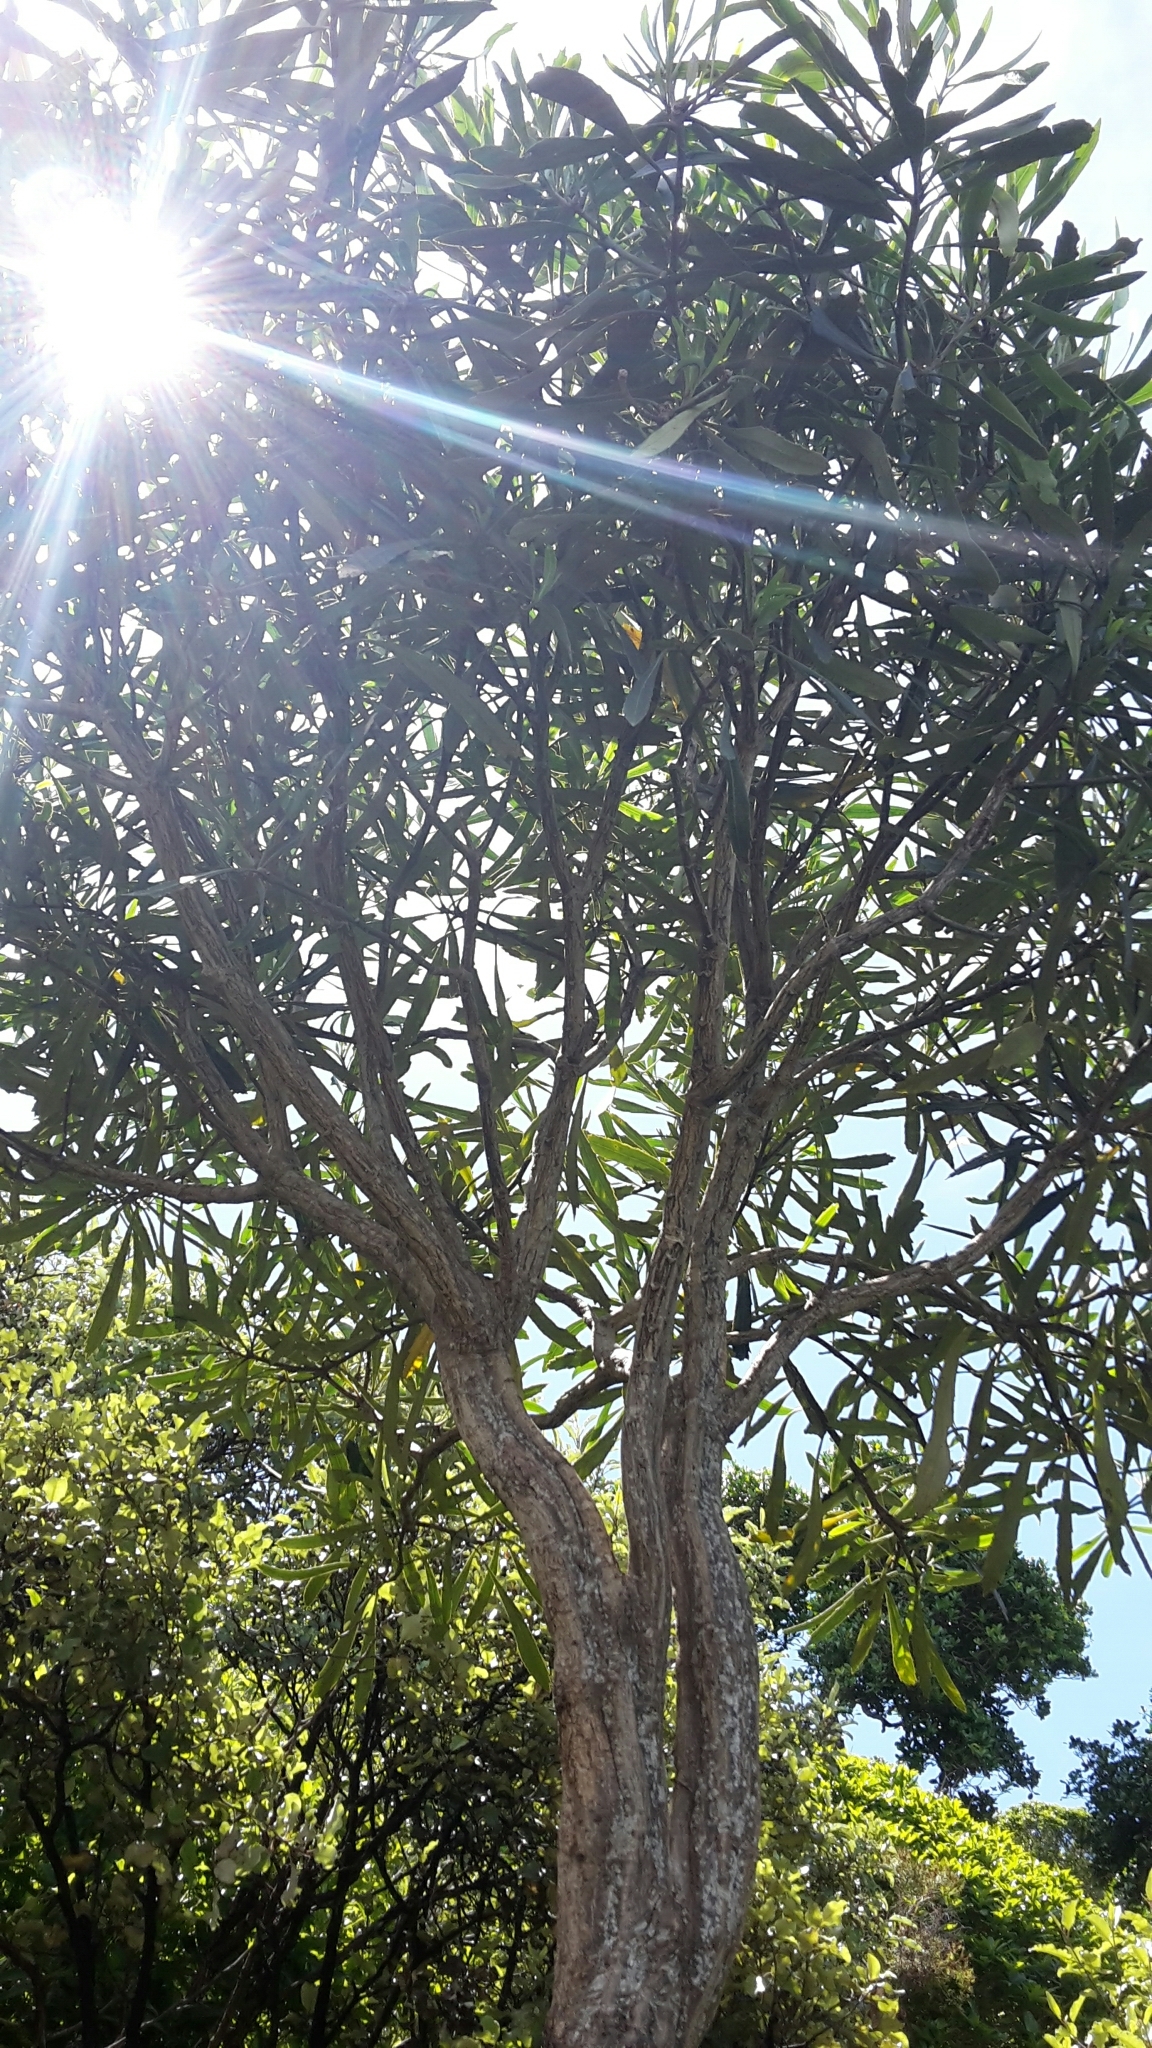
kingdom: Plantae
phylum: Tracheophyta
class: Magnoliopsida
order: Apiales
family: Araliaceae
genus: Pseudopanax
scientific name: Pseudopanax crassifolius
